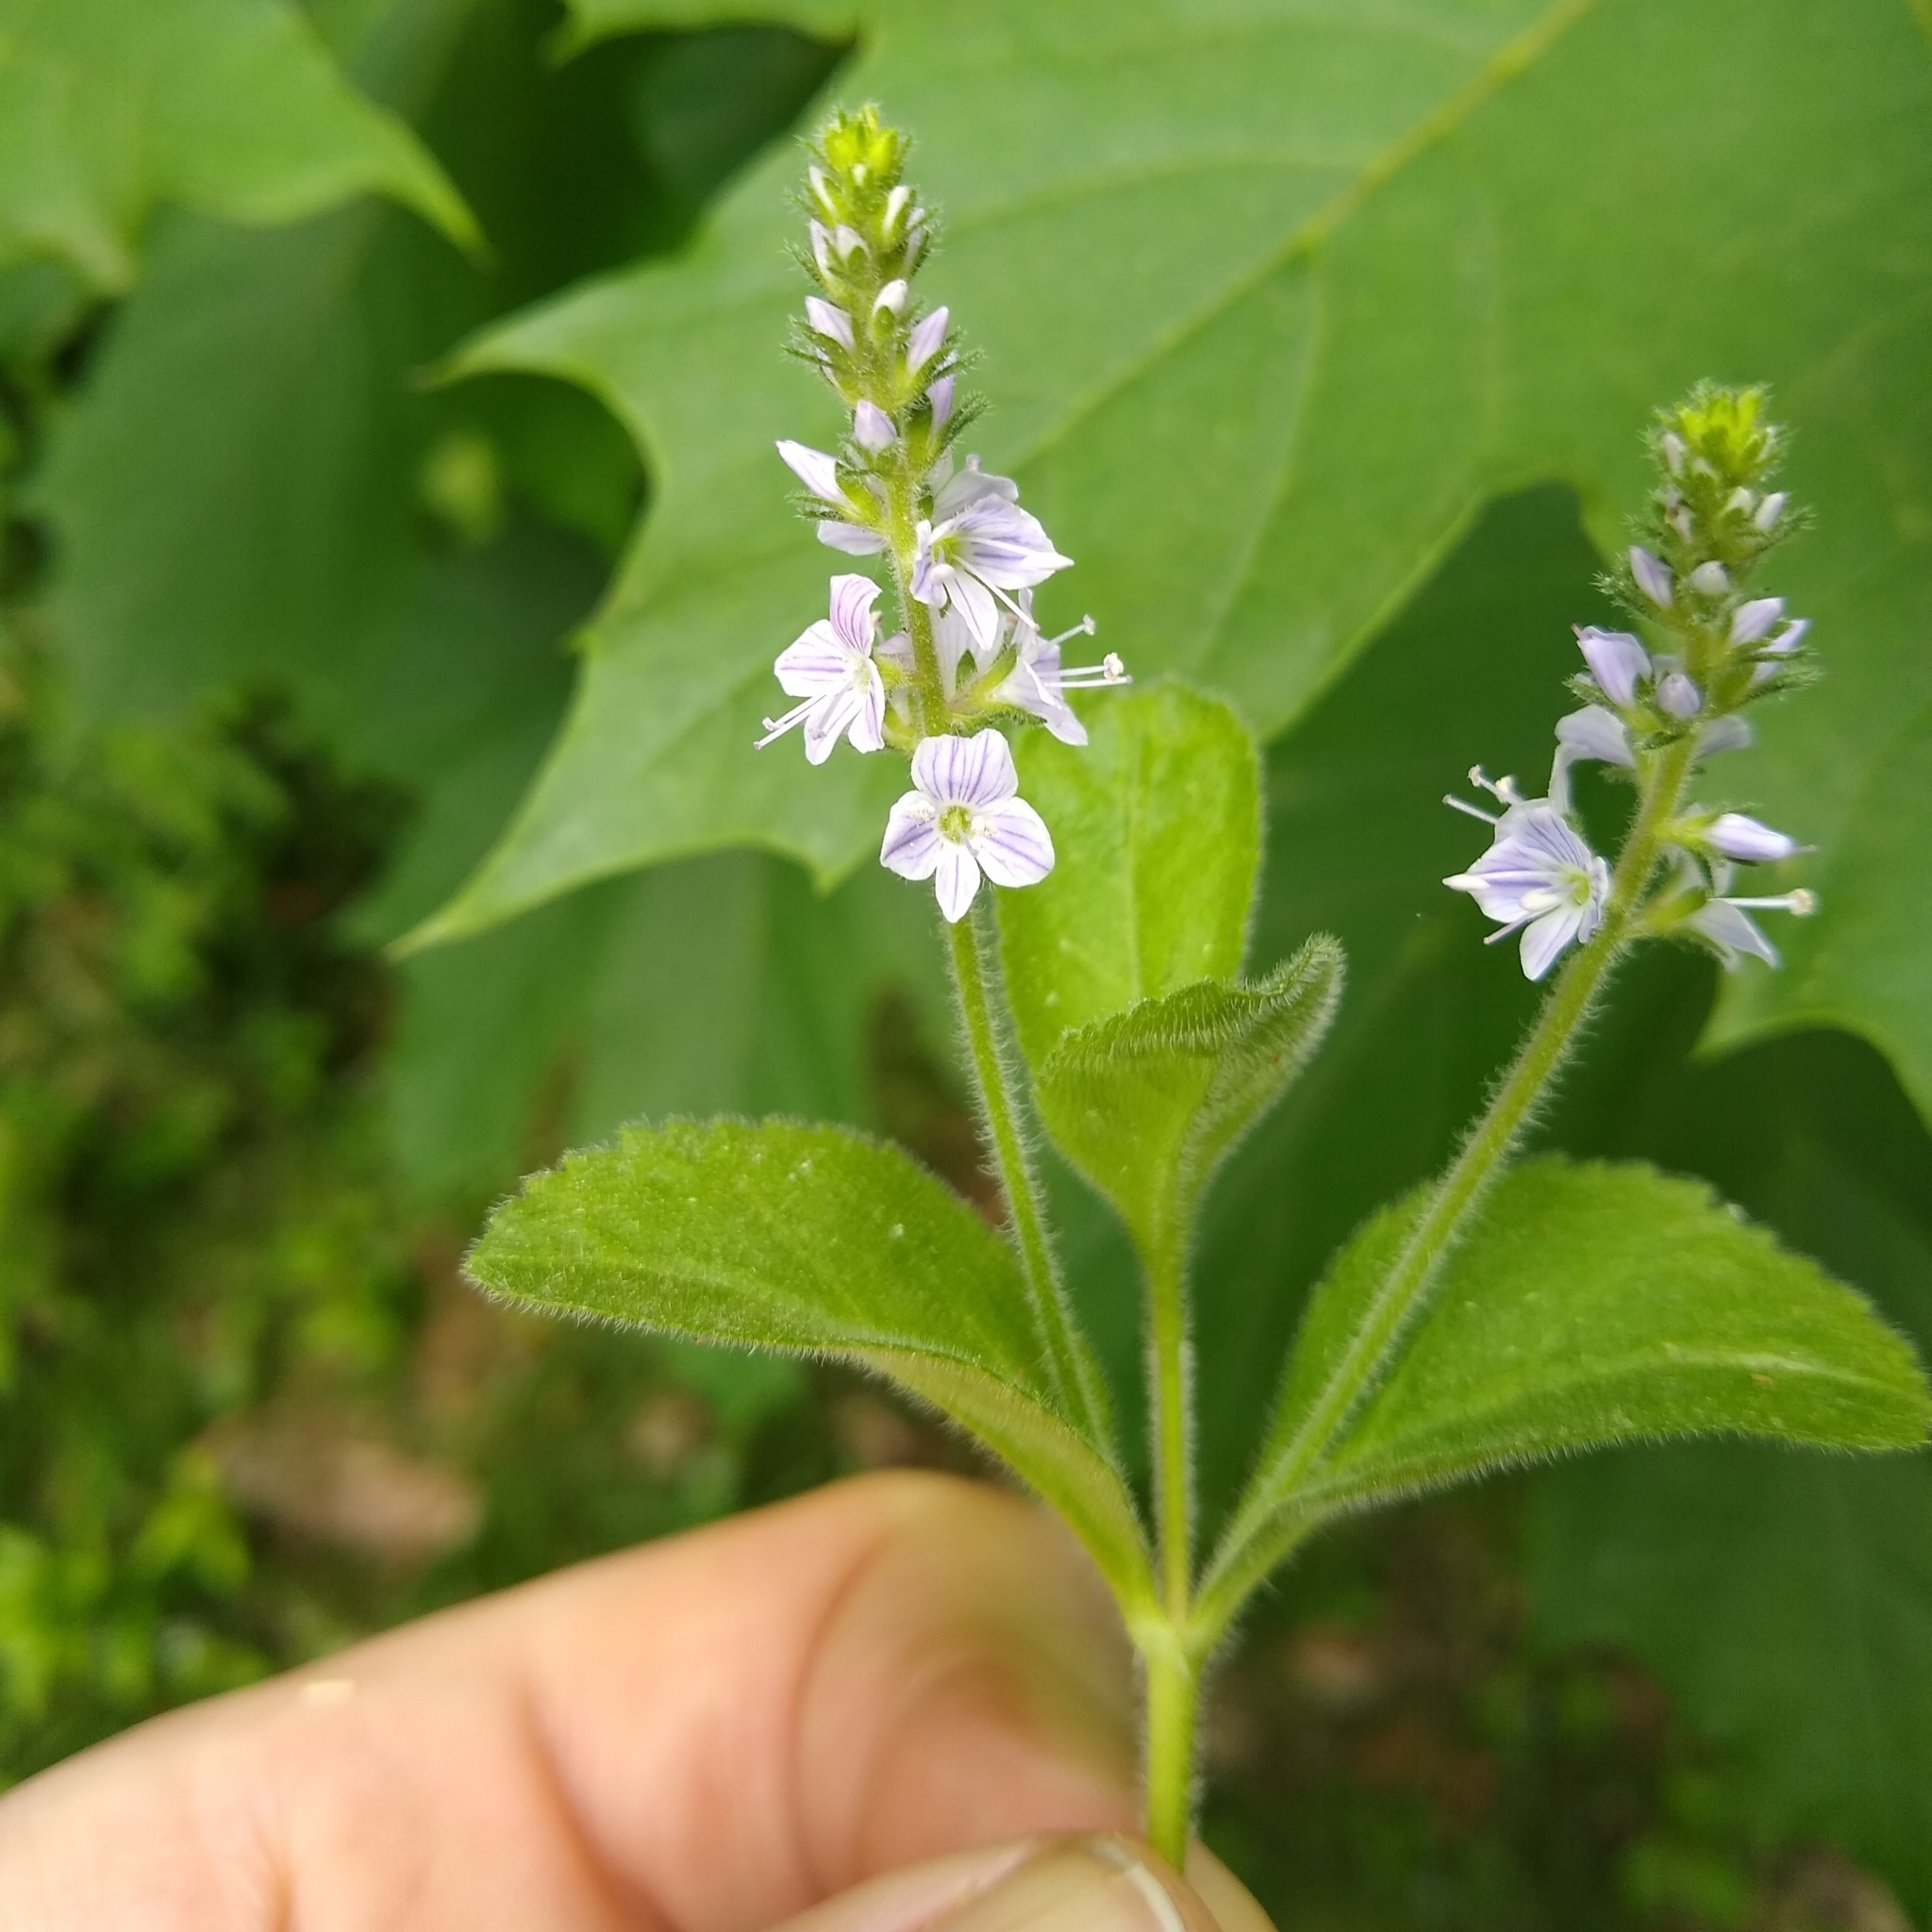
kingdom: Plantae
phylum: Tracheophyta
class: Magnoliopsida
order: Lamiales
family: Plantaginaceae
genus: Veronica
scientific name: Veronica officinalis
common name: Common speedwell
